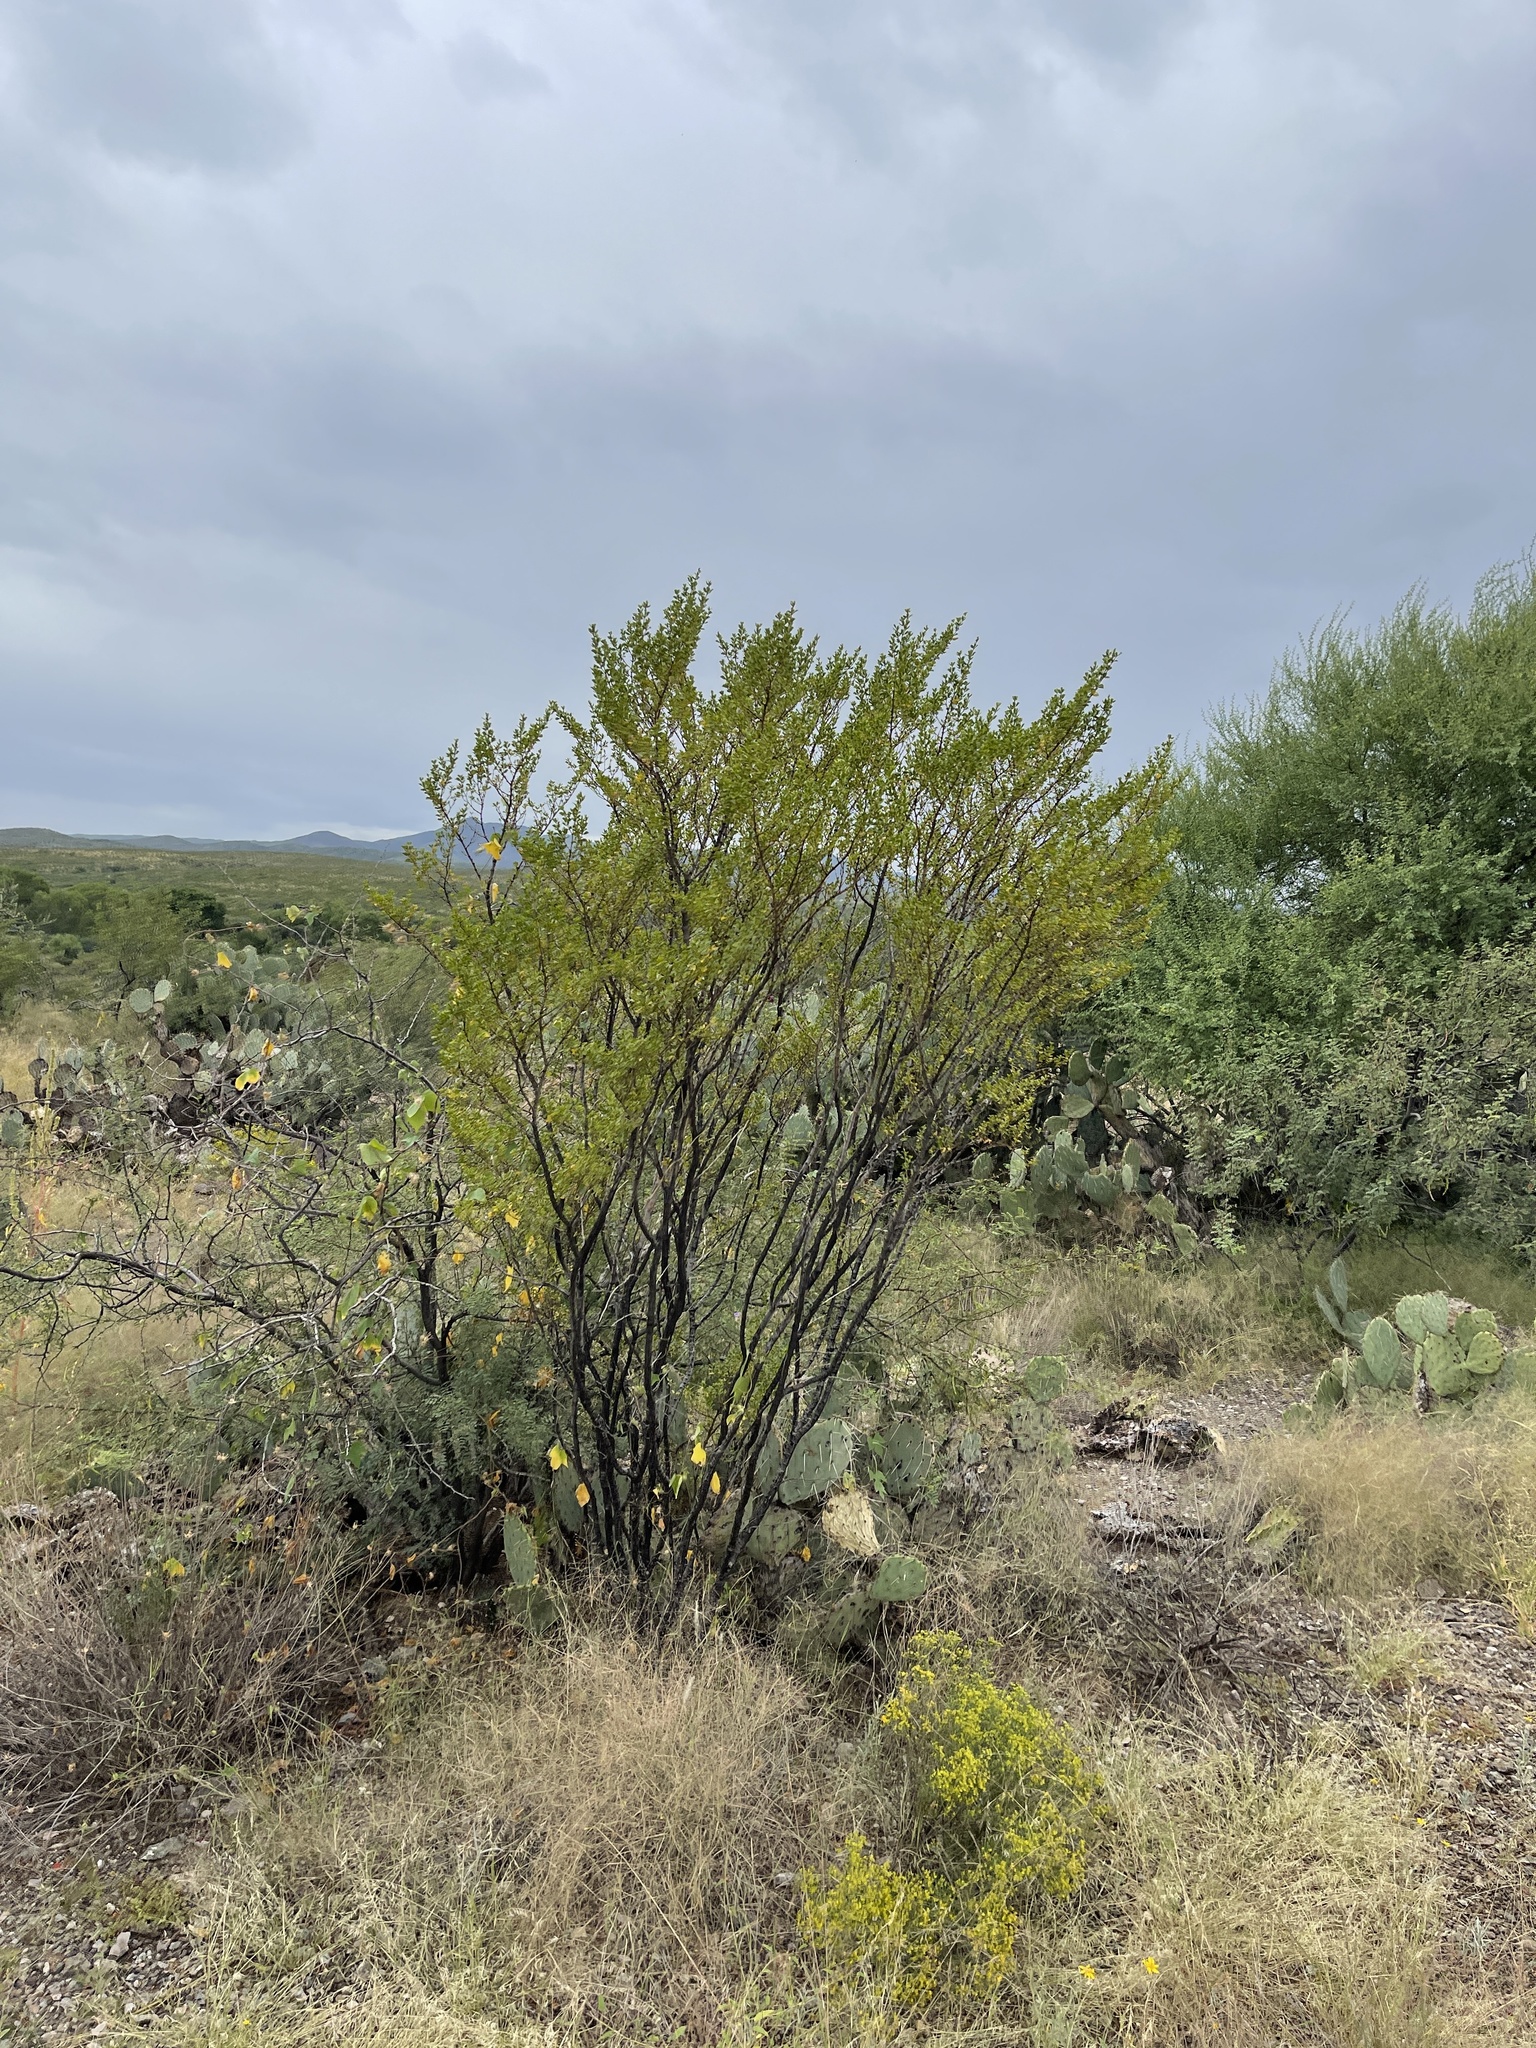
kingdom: Plantae
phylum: Tracheophyta
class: Magnoliopsida
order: Zygophyllales
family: Zygophyllaceae
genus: Larrea
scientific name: Larrea tridentata
